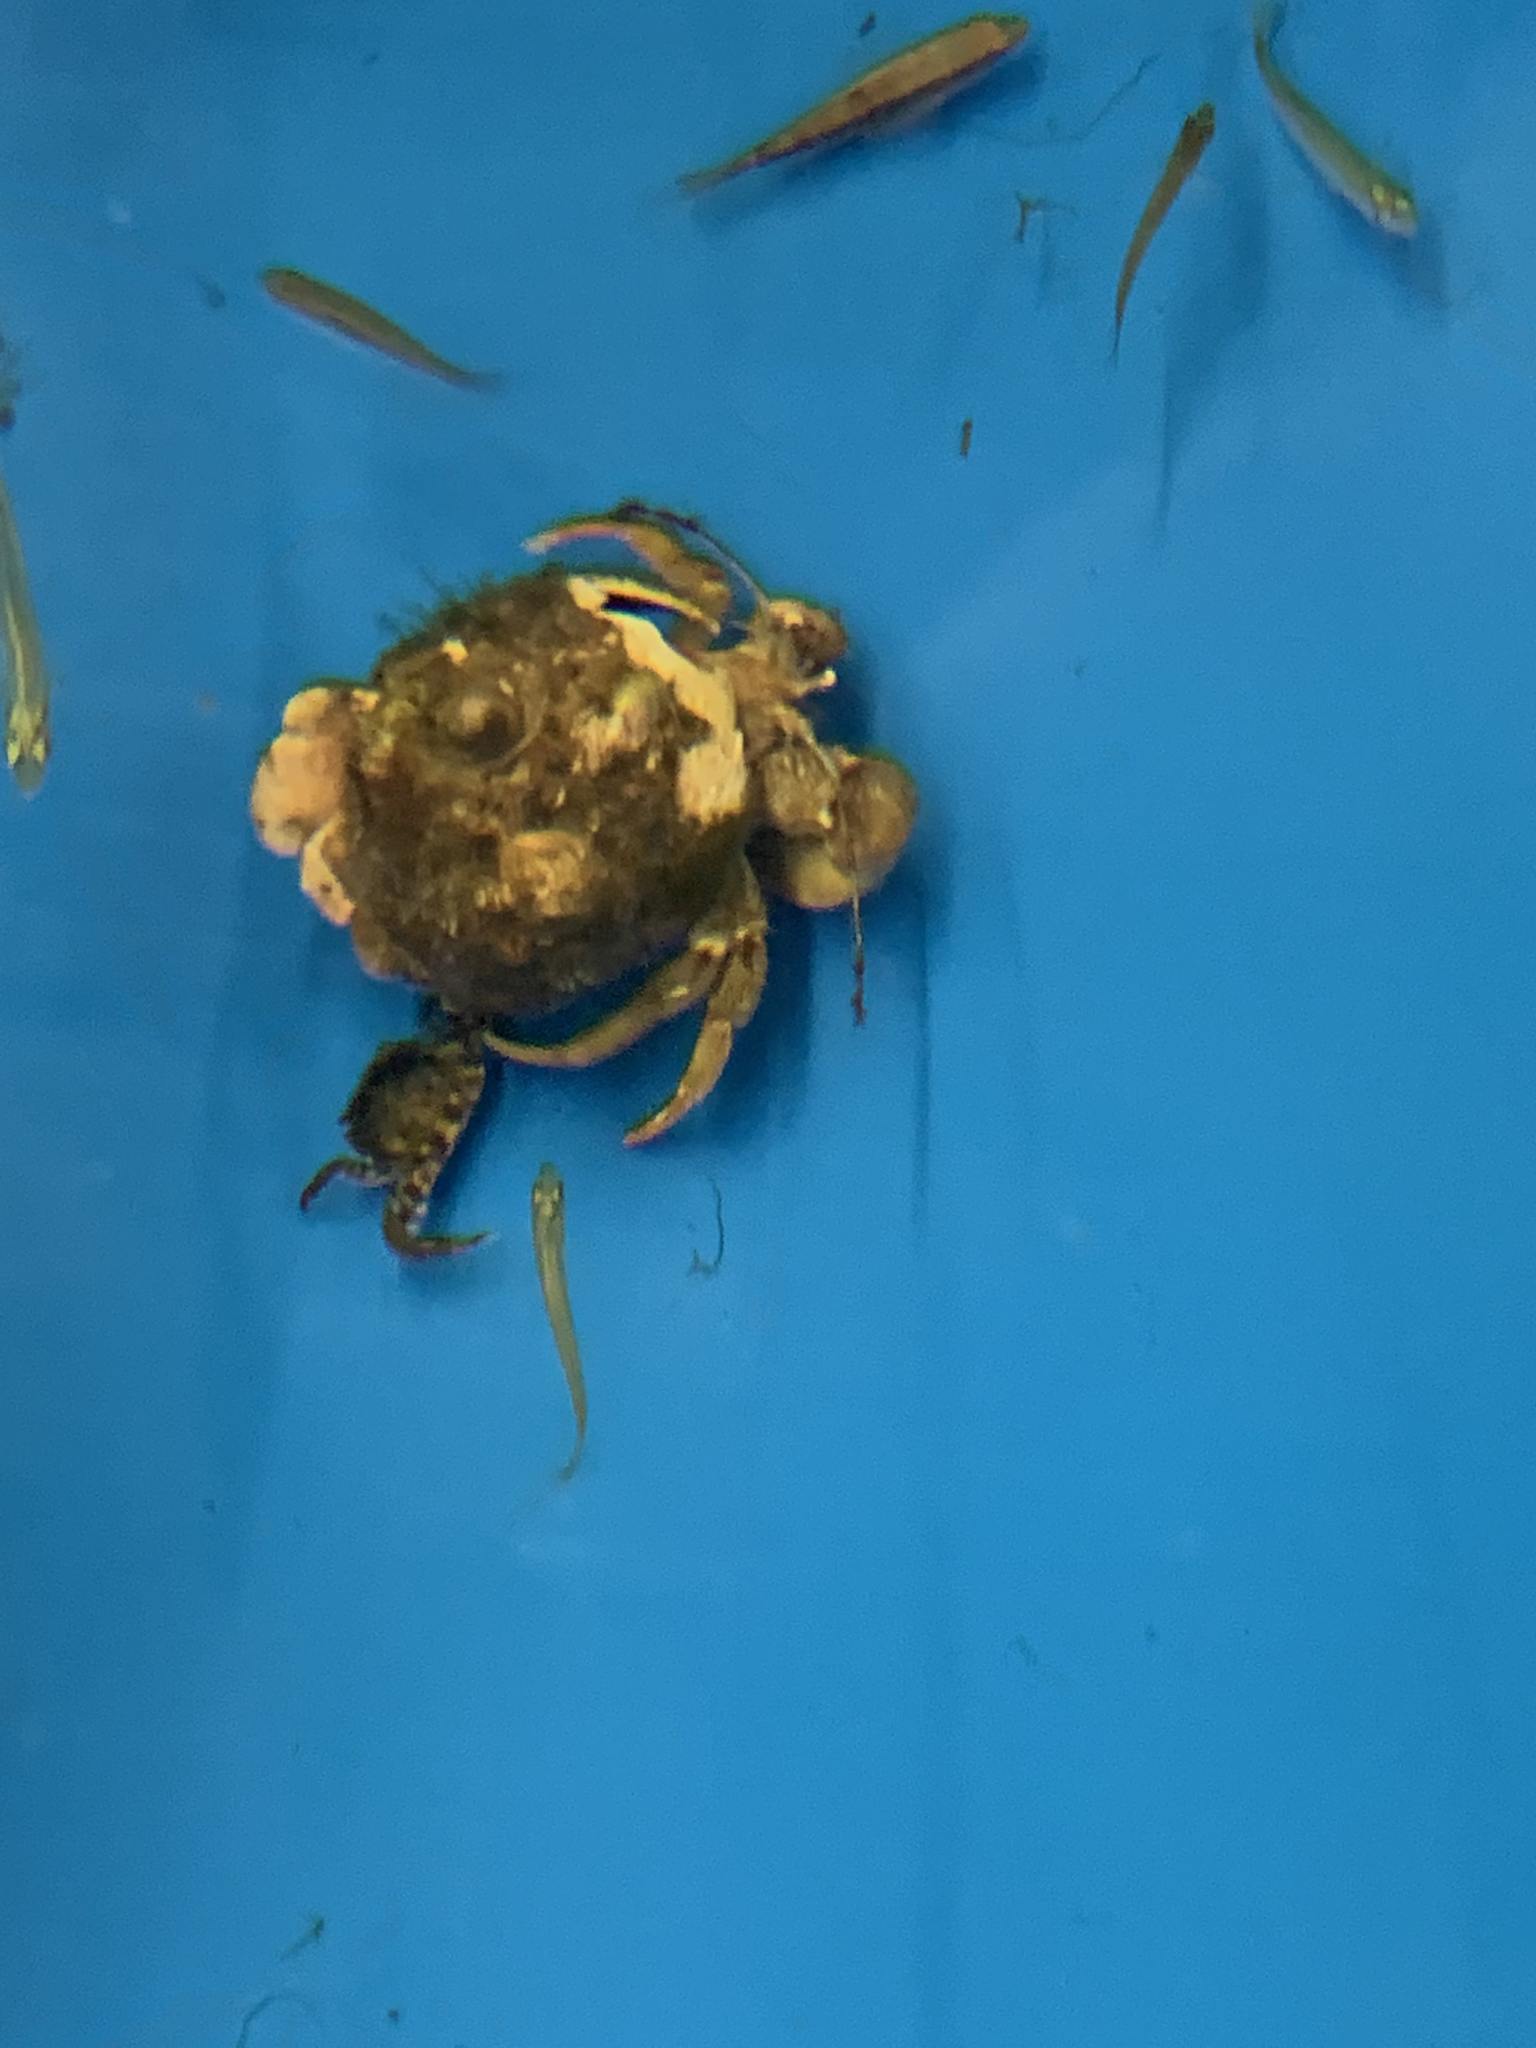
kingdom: Animalia
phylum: Arthropoda
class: Malacostraca
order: Decapoda
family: Paguridae
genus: Pagurus
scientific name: Pagurus pollicaris
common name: Flatclaw hermit
